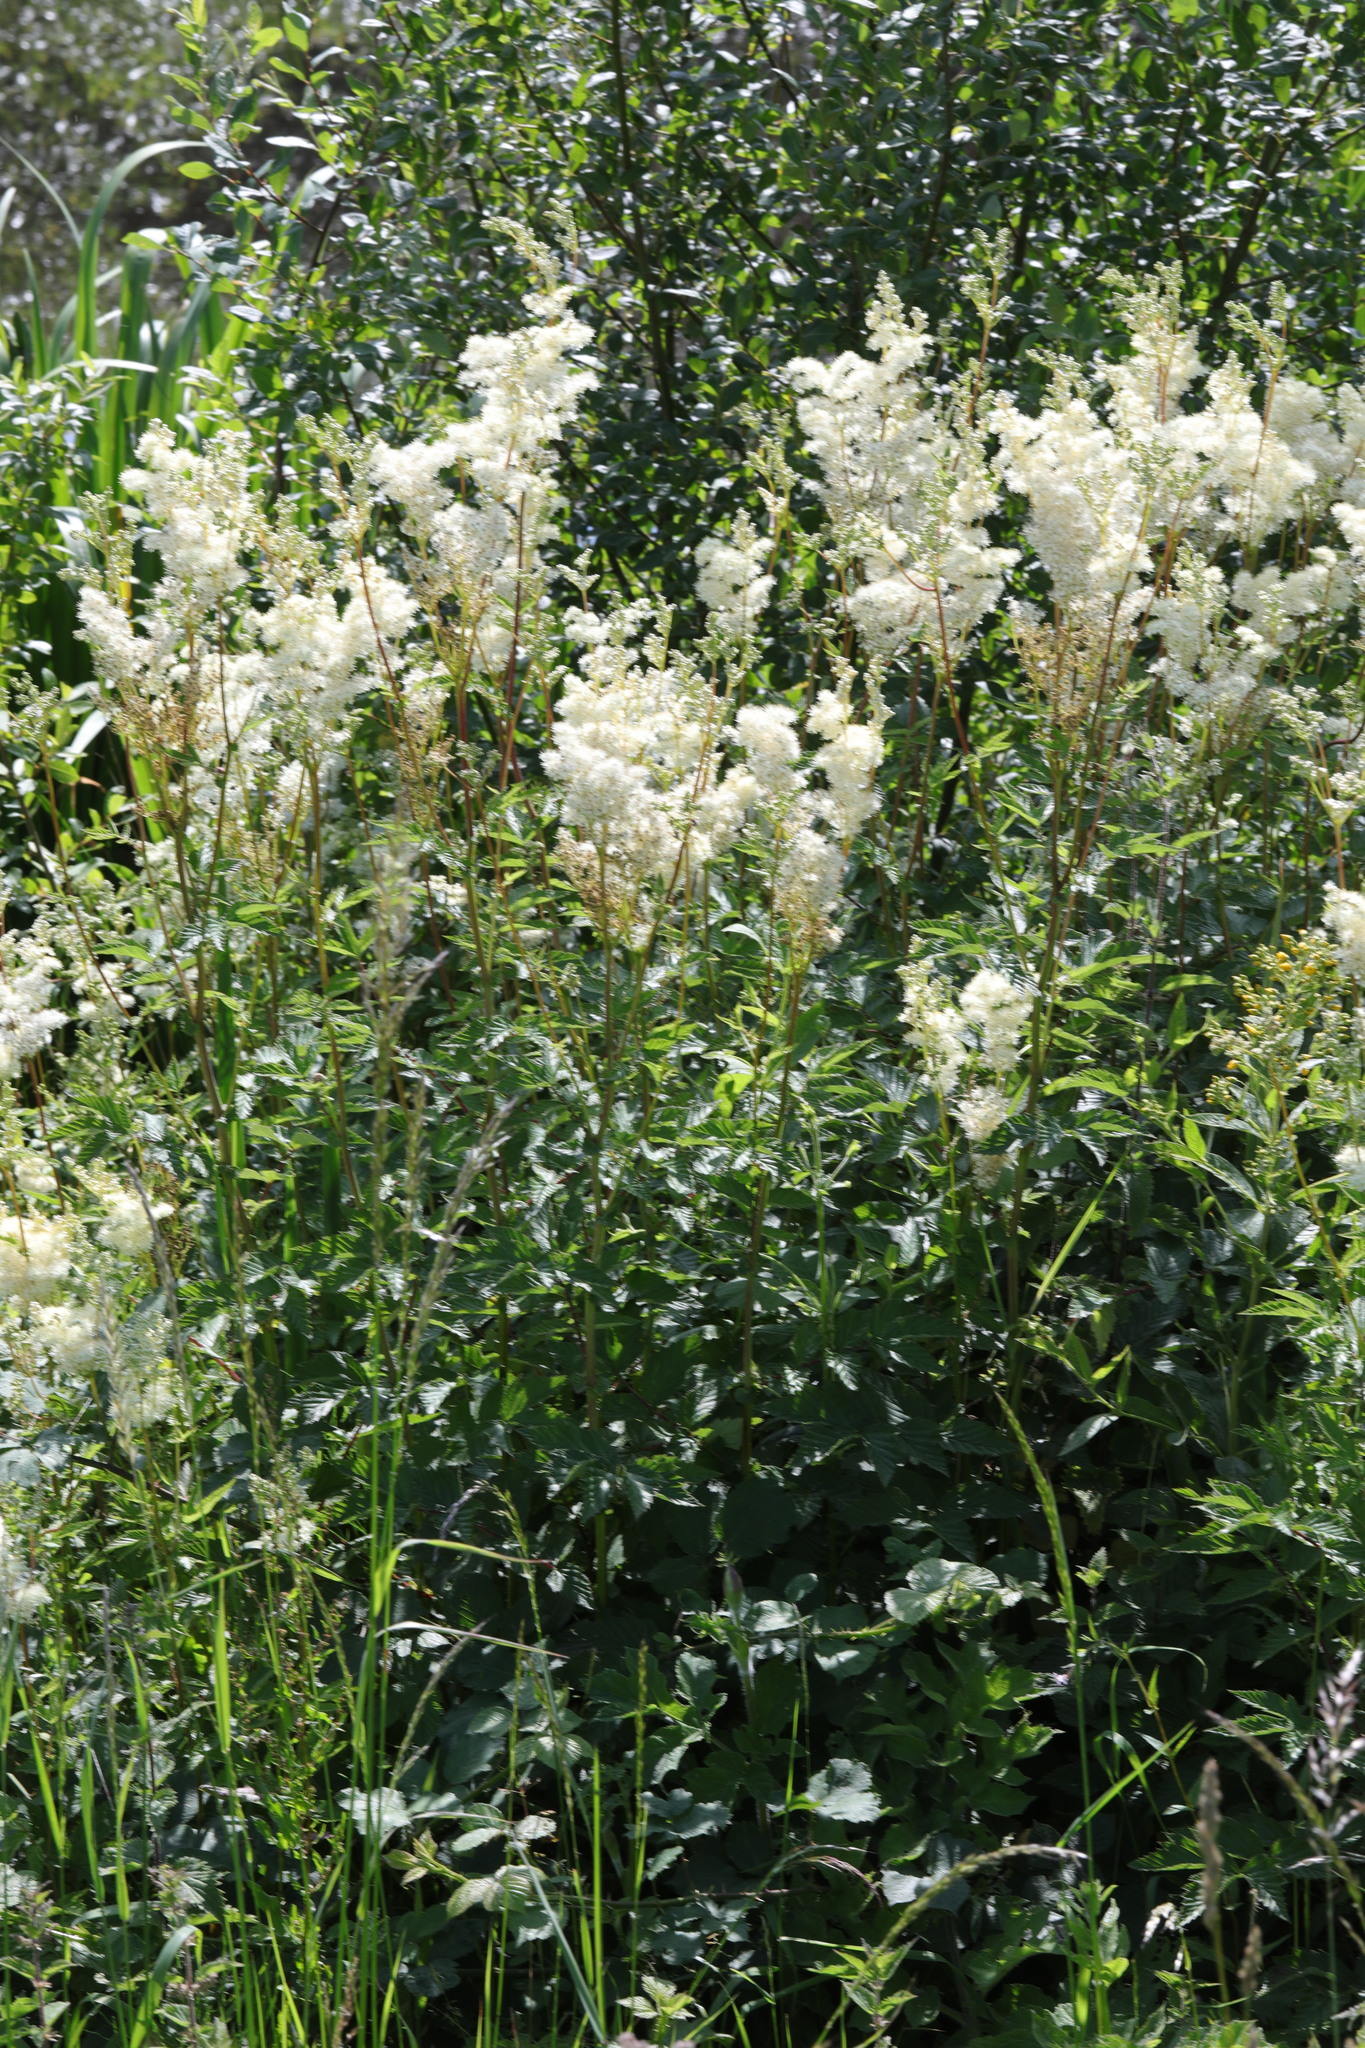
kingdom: Plantae
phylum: Tracheophyta
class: Magnoliopsida
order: Rosales
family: Rosaceae
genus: Filipendula
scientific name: Filipendula ulmaria
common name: Meadowsweet
